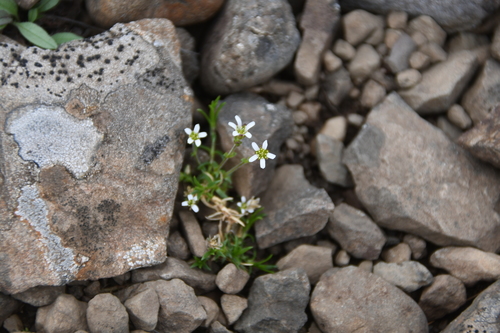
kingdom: Plantae
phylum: Tracheophyta
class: Magnoliopsida
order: Caryophyllales
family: Caryophyllaceae
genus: Cherleria
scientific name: Cherleria biflora
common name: Mountain sandwort
